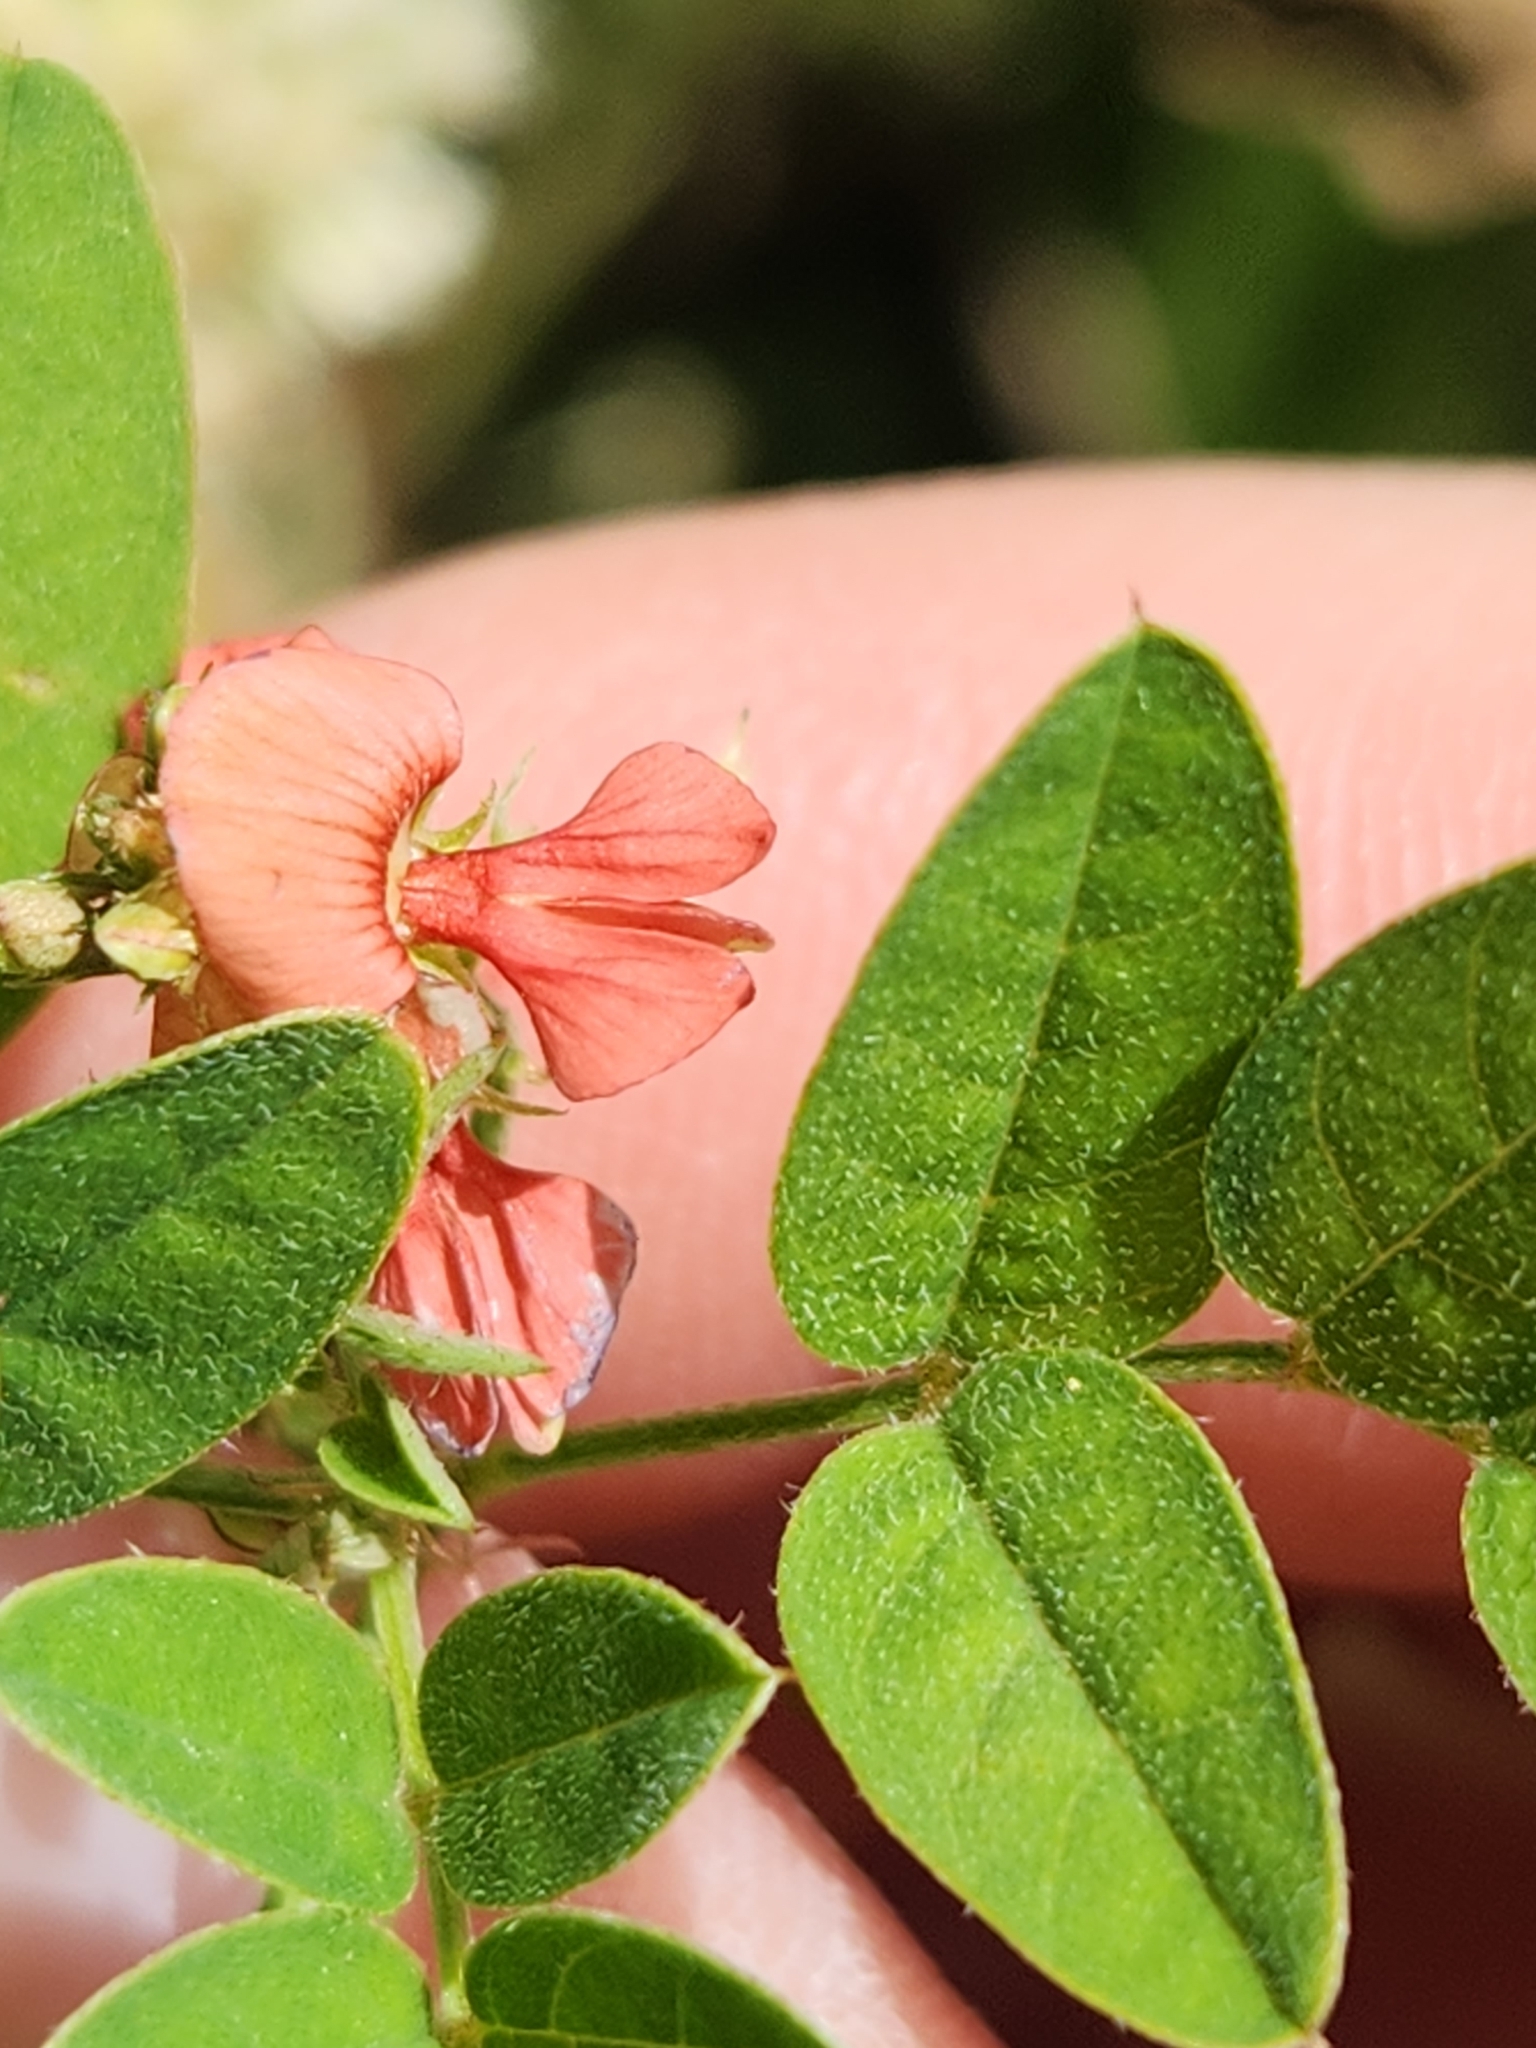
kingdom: Plantae
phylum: Tracheophyta
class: Magnoliopsida
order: Fabales
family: Fabaceae
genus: Indigofera
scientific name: Indigofera spicata
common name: Creeping indigo
